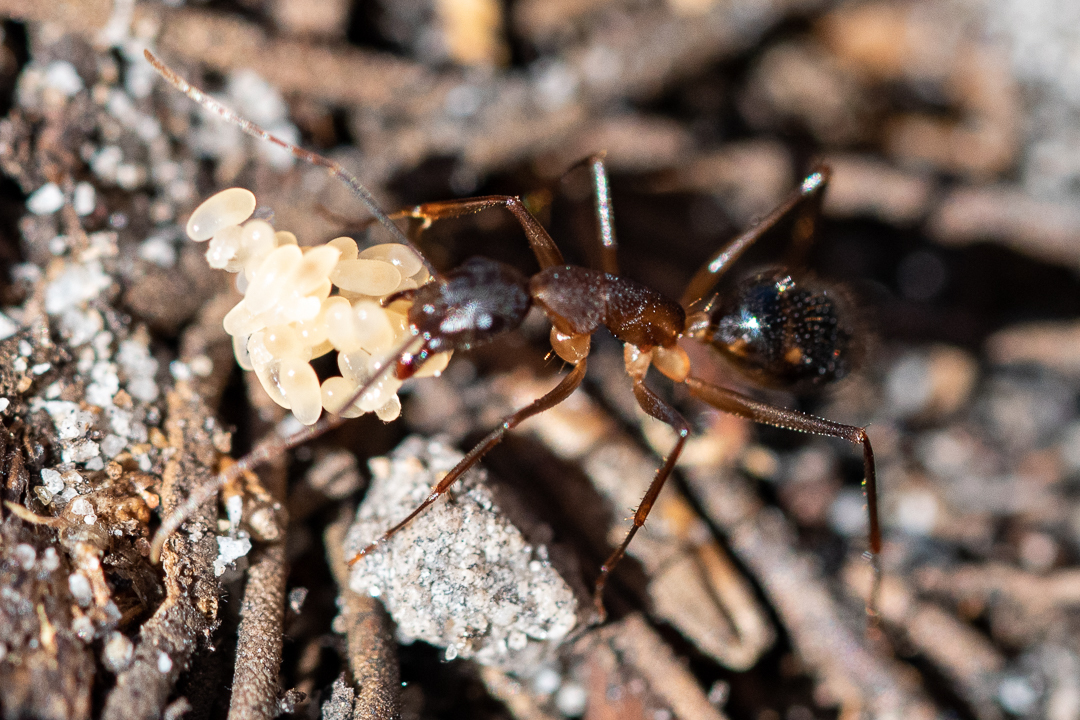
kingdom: Animalia
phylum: Arthropoda
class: Insecta
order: Hymenoptera
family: Formicidae
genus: Camponotus
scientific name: Camponotus maculatus
